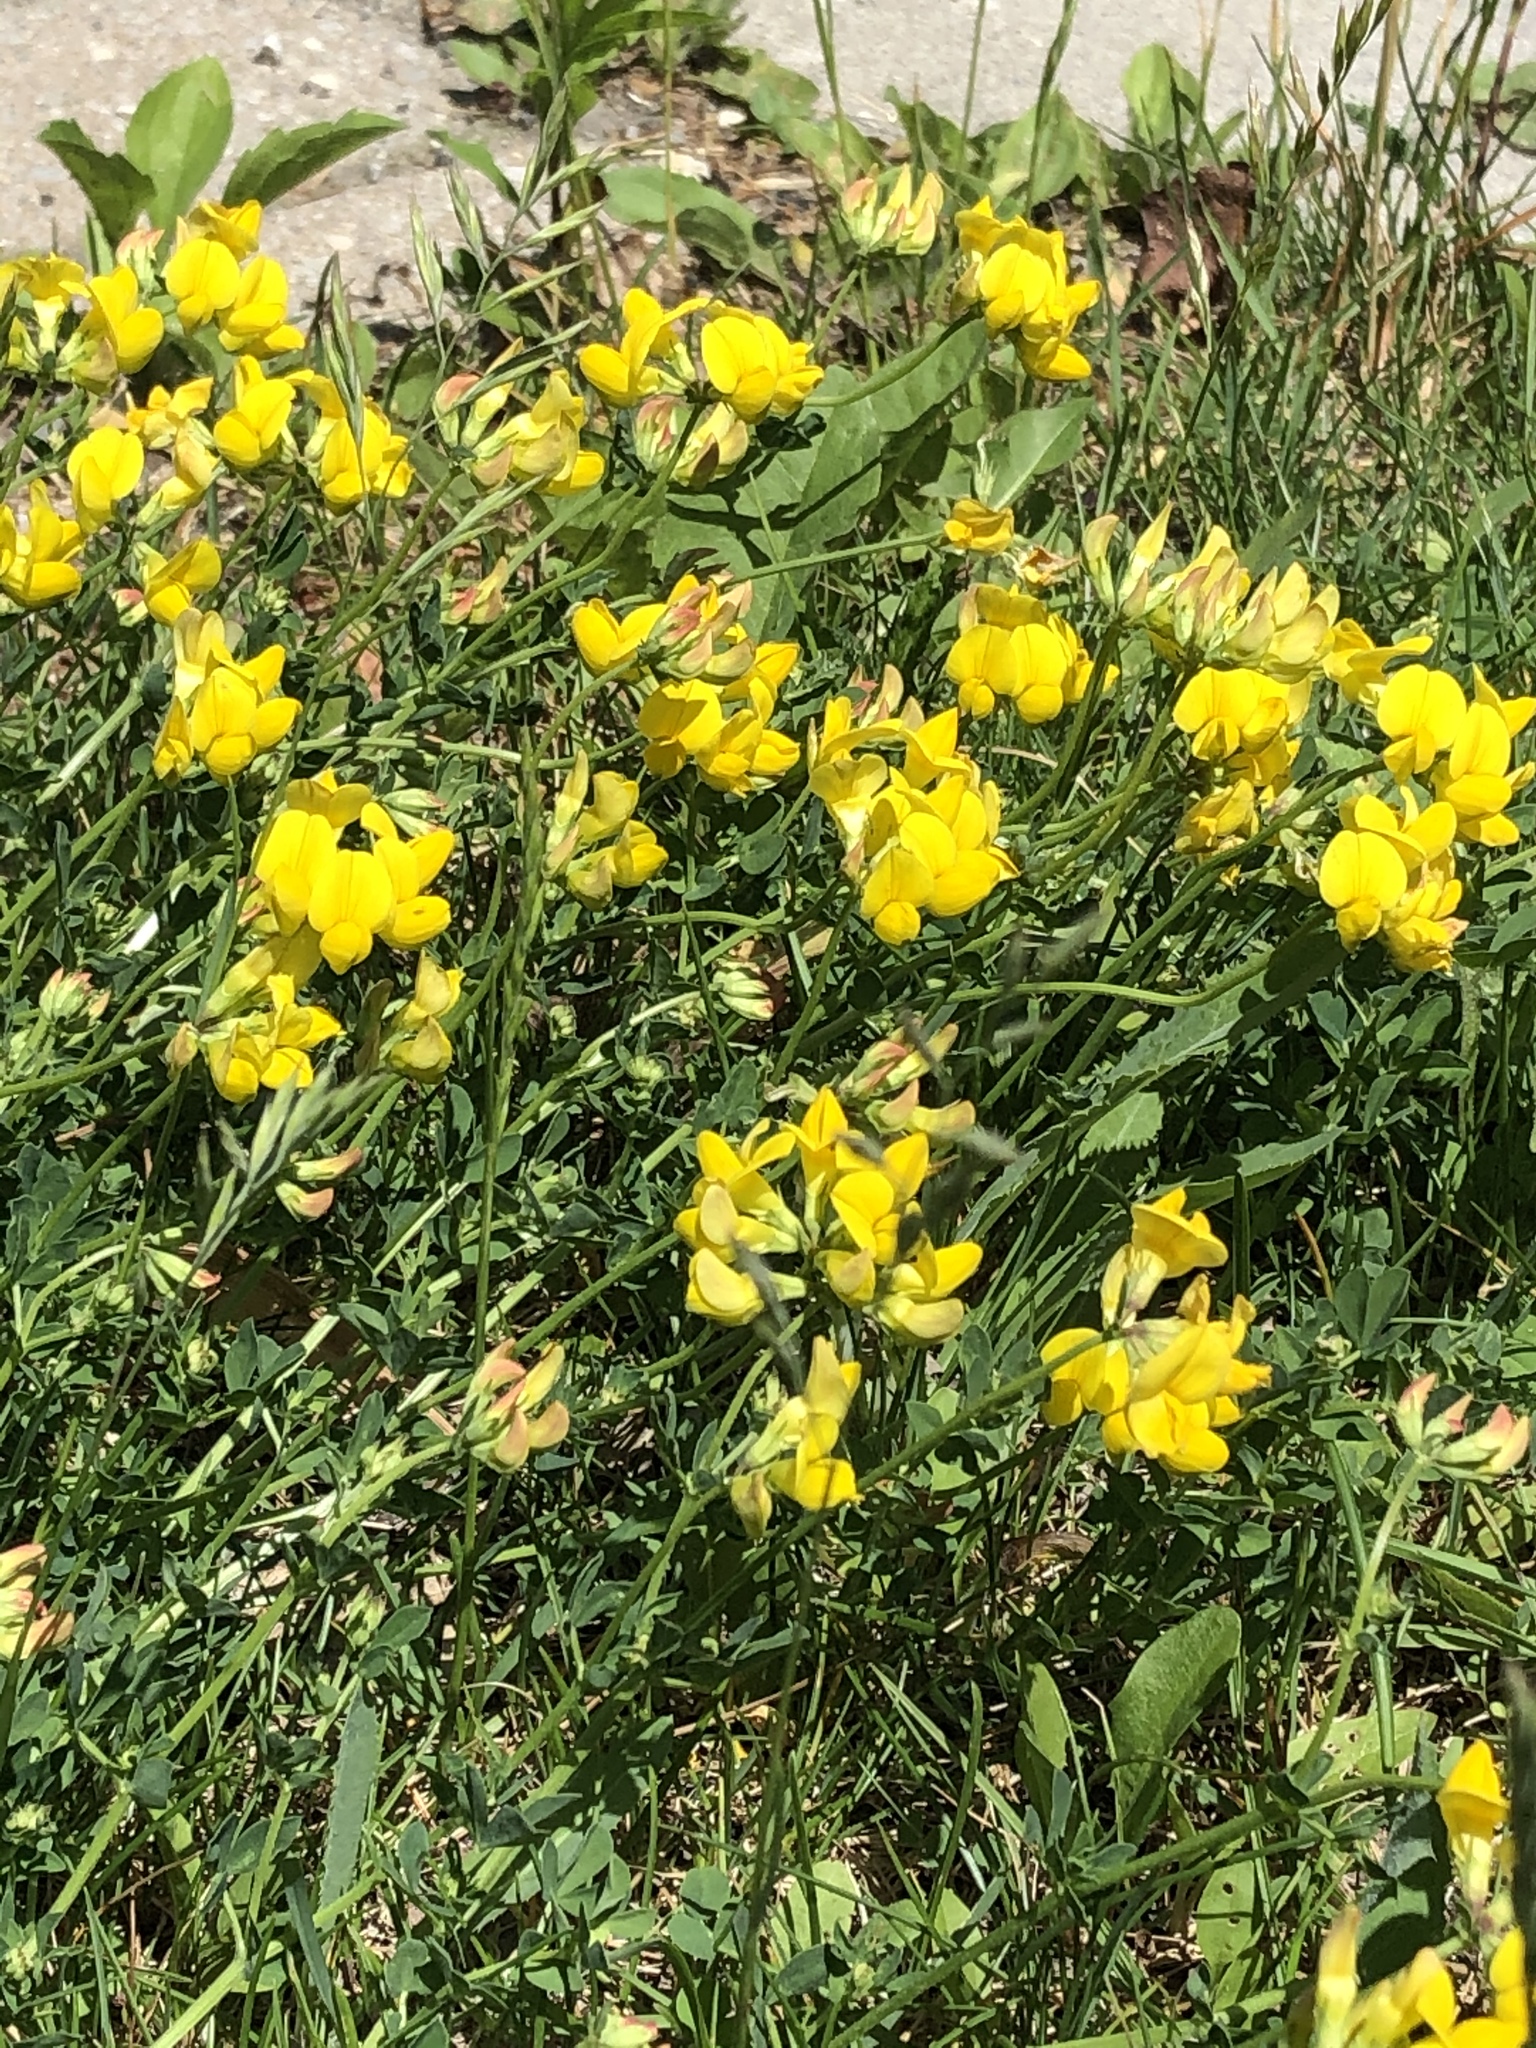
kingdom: Plantae
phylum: Tracheophyta
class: Magnoliopsida
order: Fabales
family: Fabaceae
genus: Lotus
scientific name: Lotus corniculatus
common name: Common bird's-foot-trefoil
